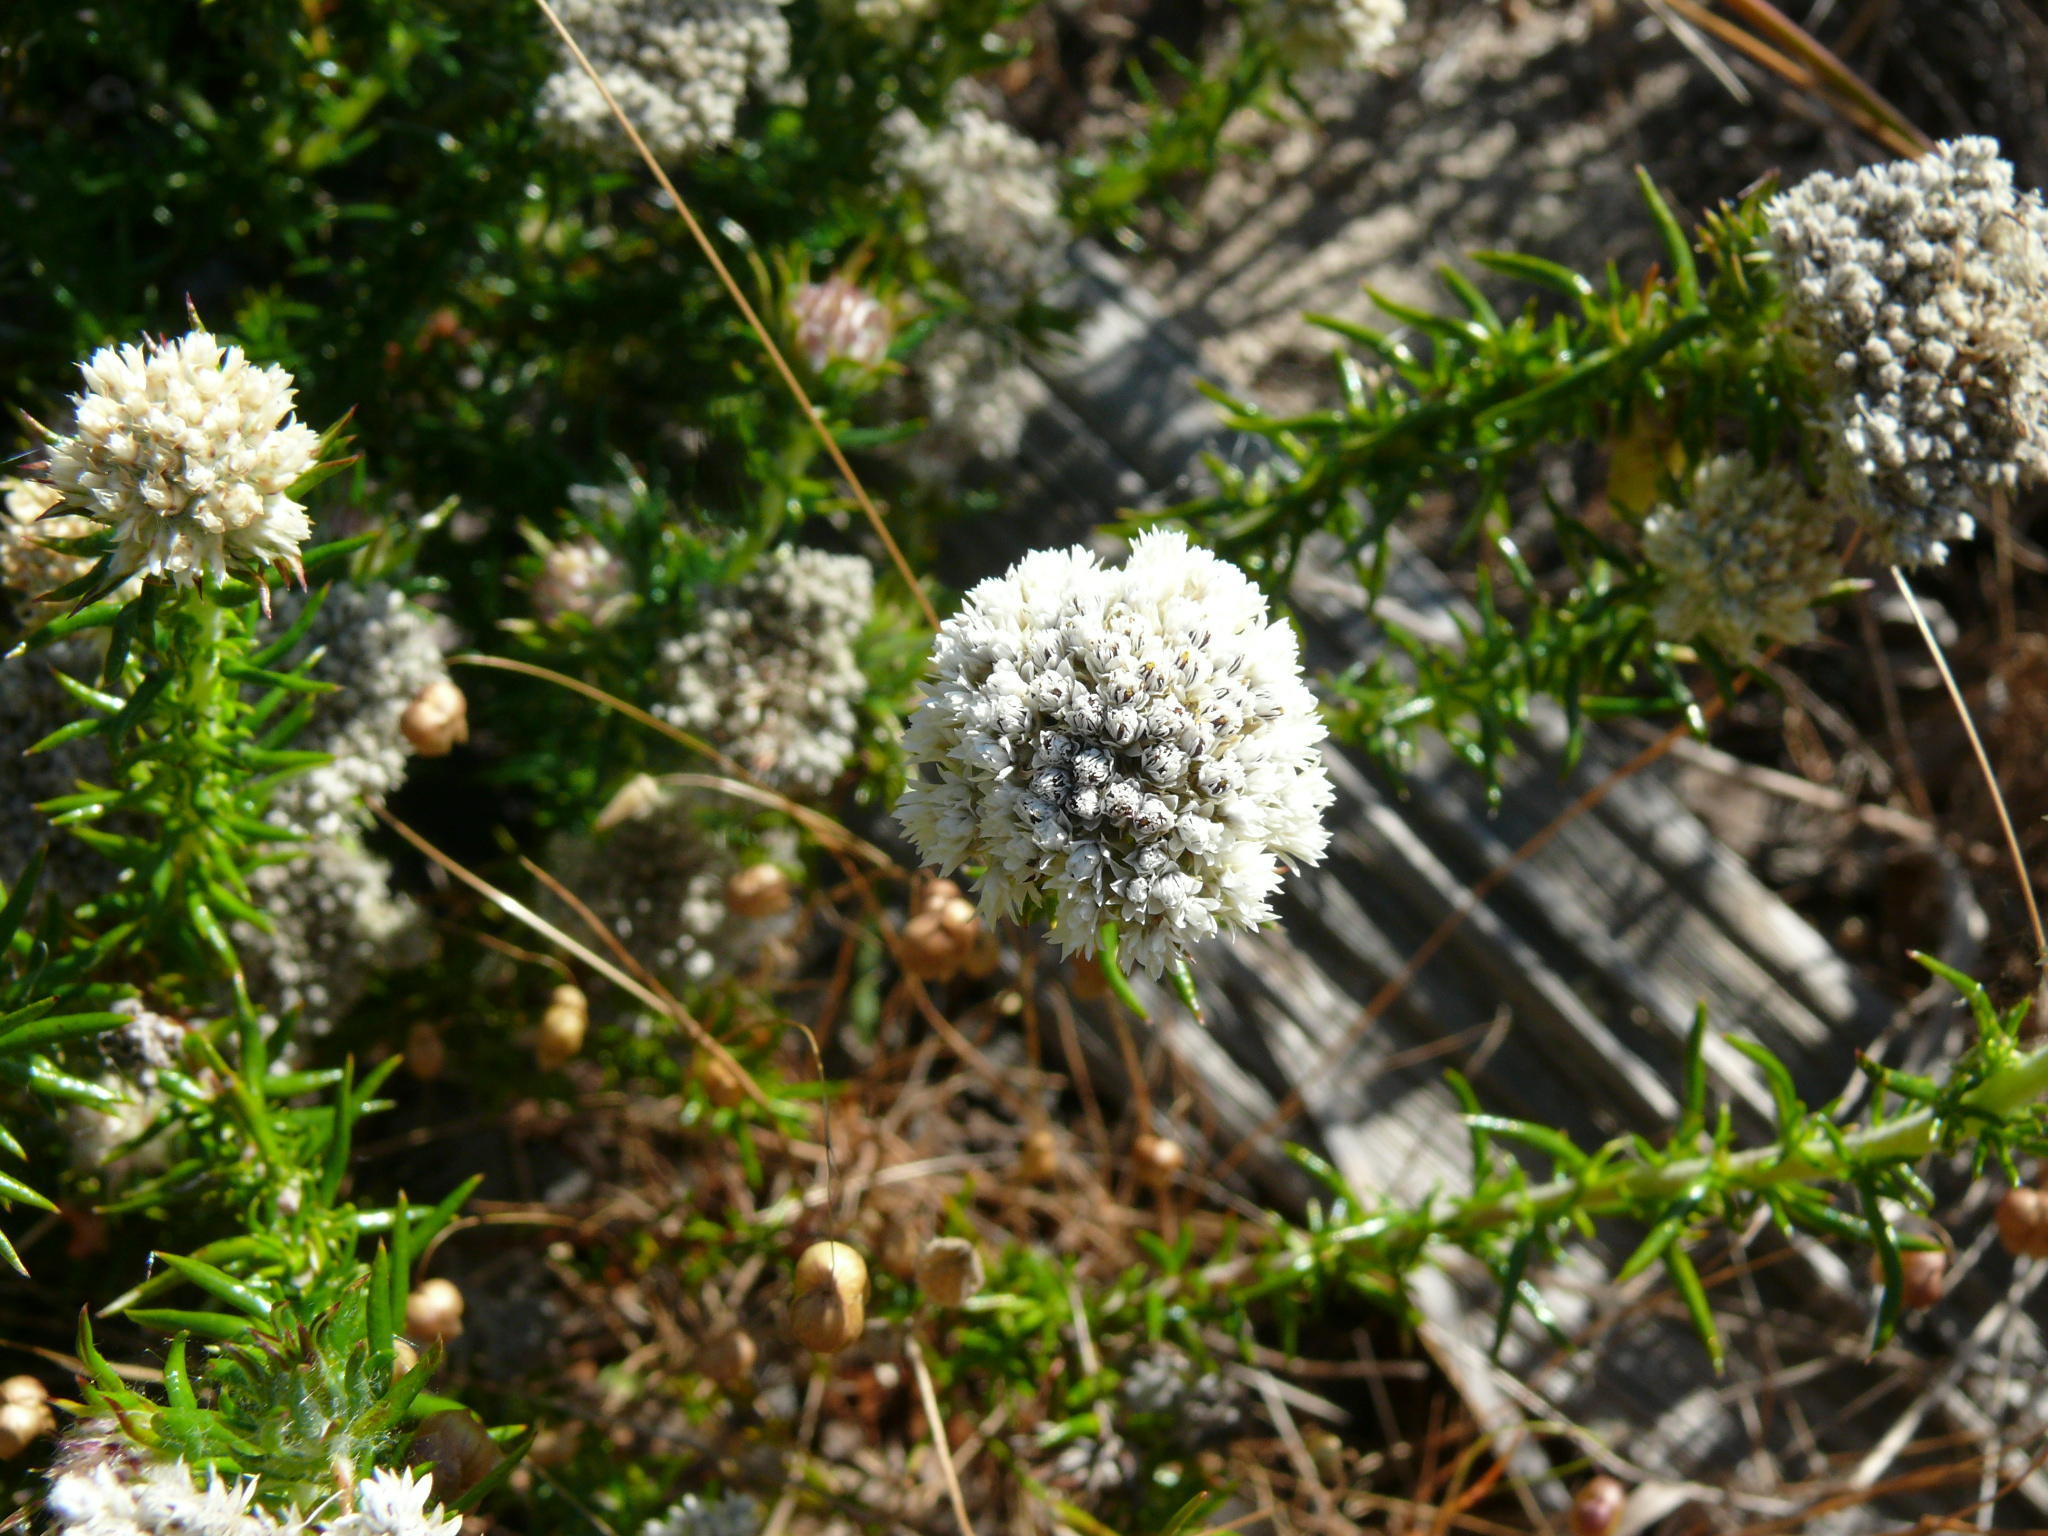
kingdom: Plantae
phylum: Tracheophyta
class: Magnoliopsida
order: Asterales
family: Asteraceae
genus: Metalasia
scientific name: Metalasia pulchella
